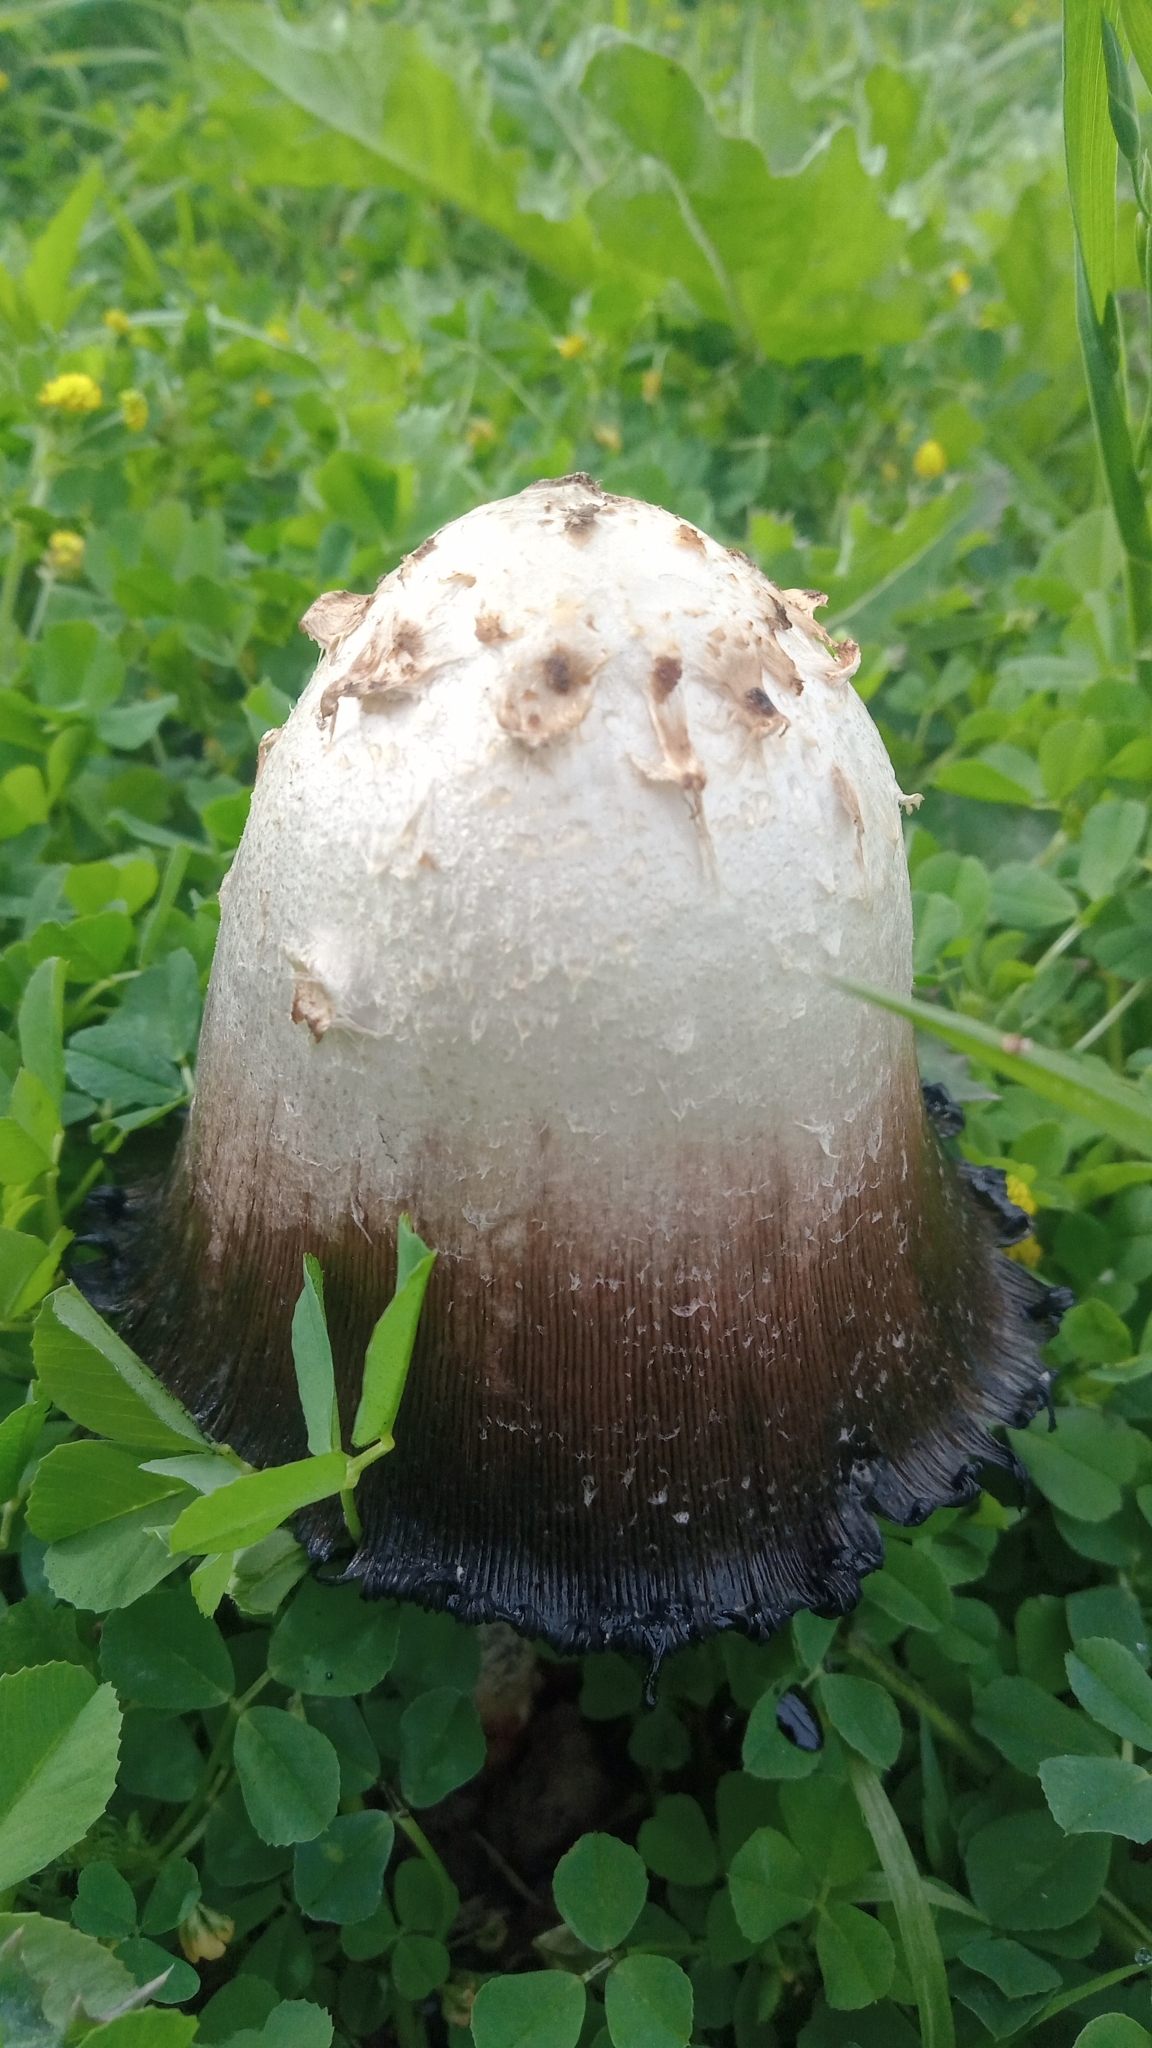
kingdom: Fungi
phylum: Basidiomycota
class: Agaricomycetes
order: Agaricales
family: Agaricaceae
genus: Coprinus
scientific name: Coprinus comatus
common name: Lawyer's wig
